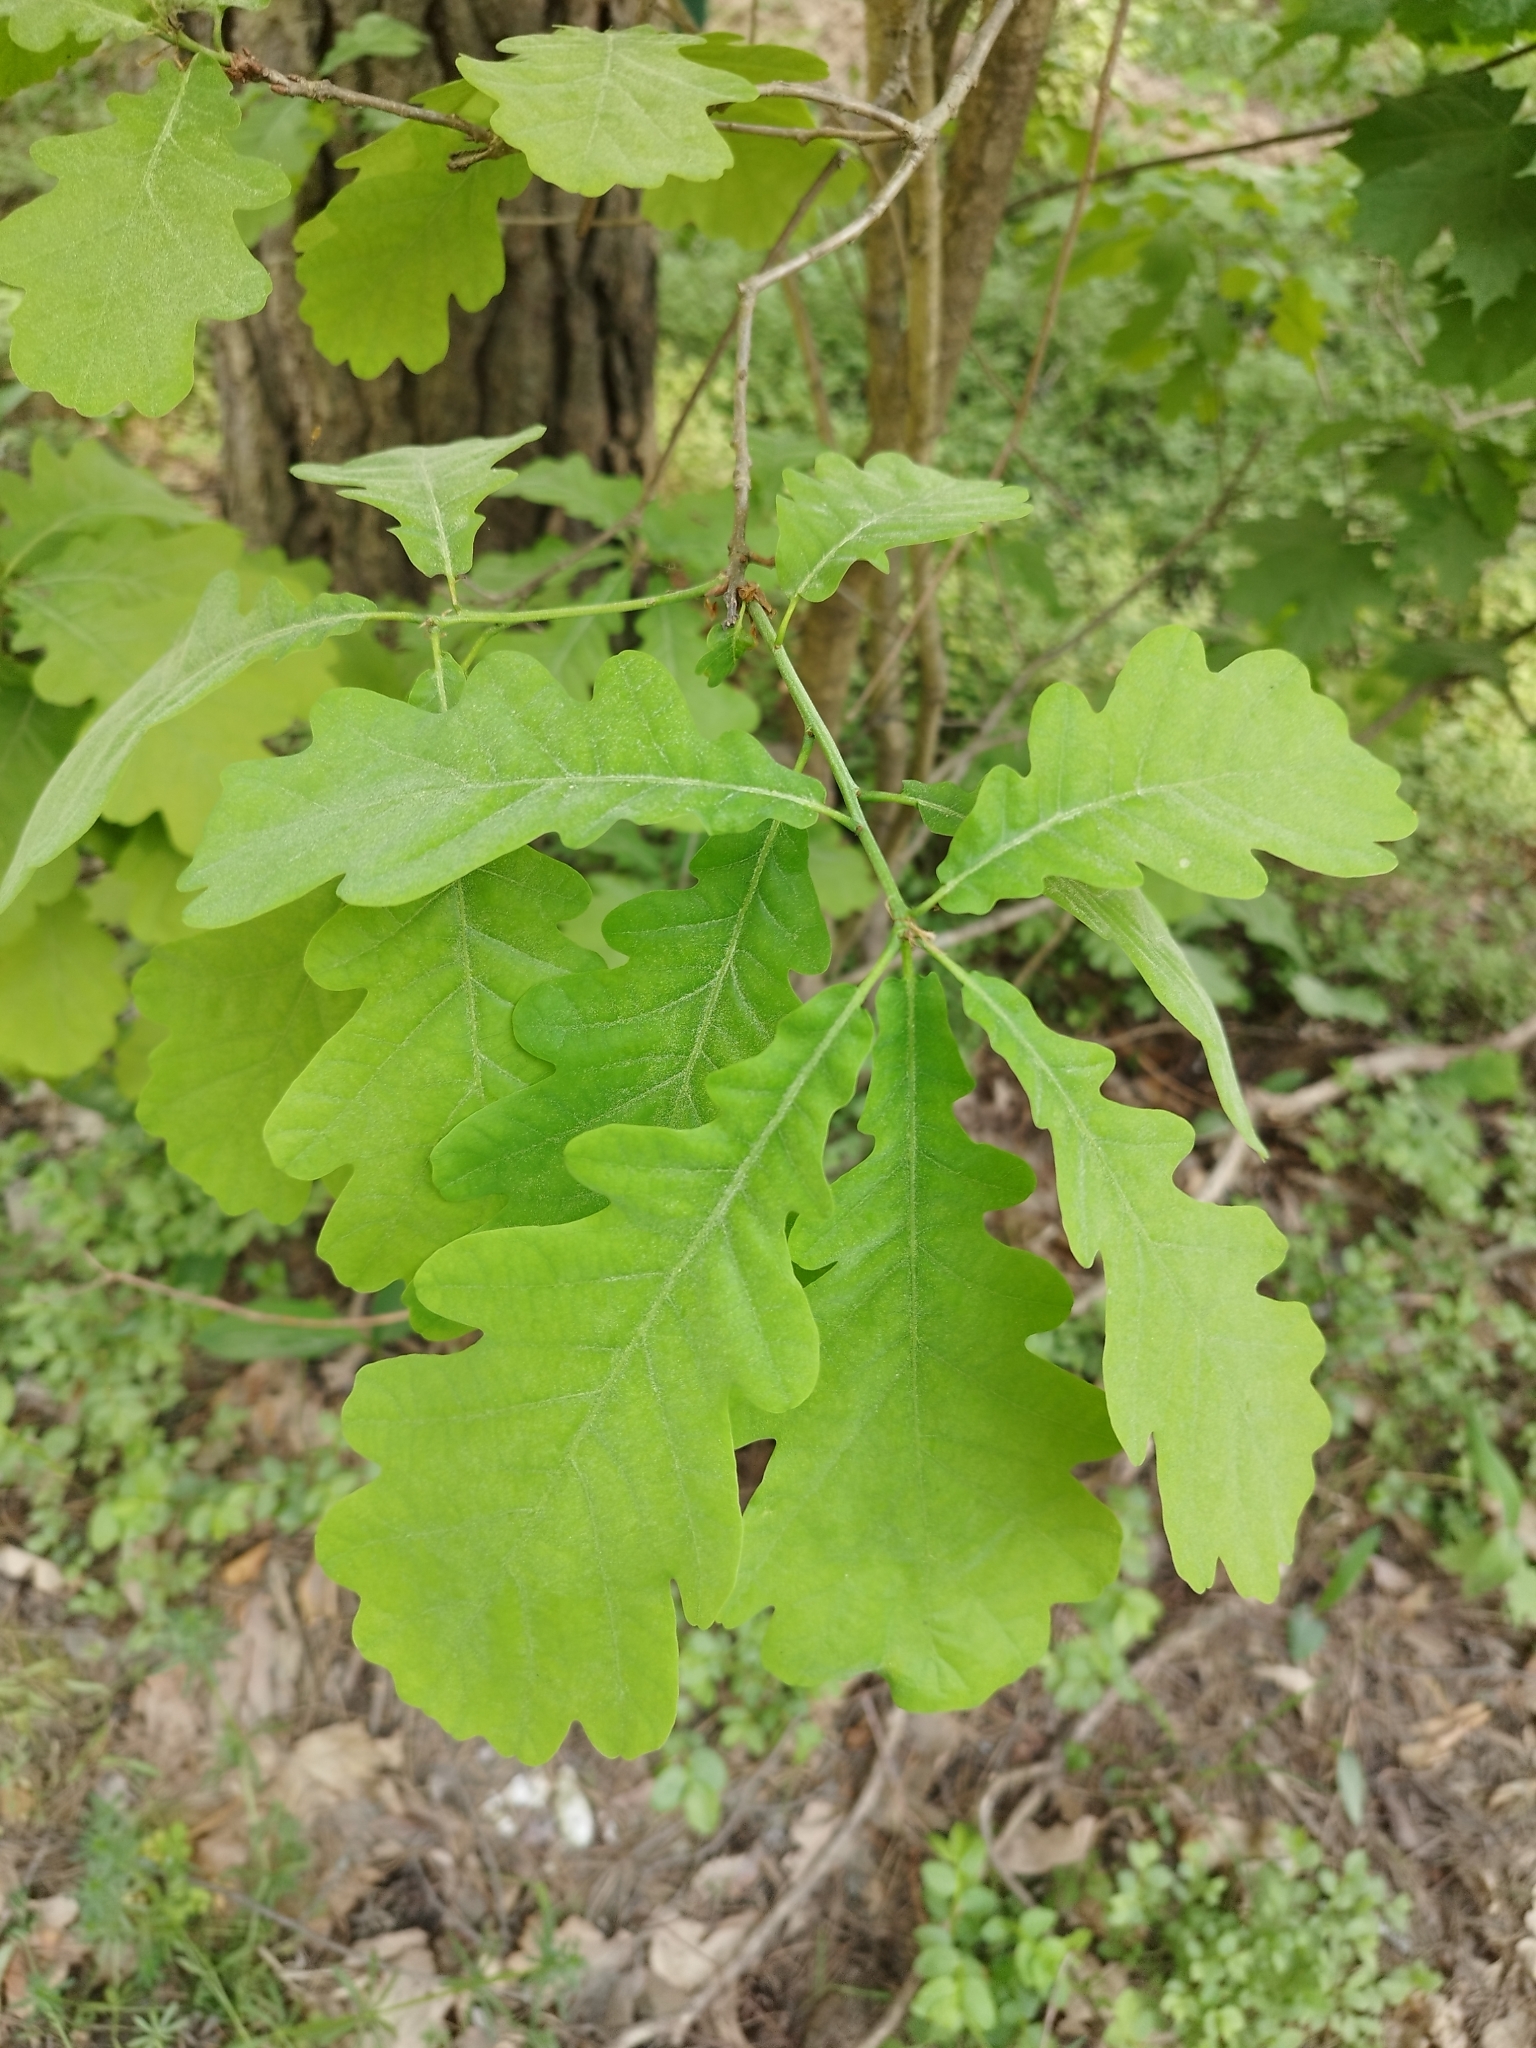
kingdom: Plantae
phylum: Tracheophyta
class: Magnoliopsida
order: Fagales
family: Fagaceae
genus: Quercus
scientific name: Quercus robur
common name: Pedunculate oak
